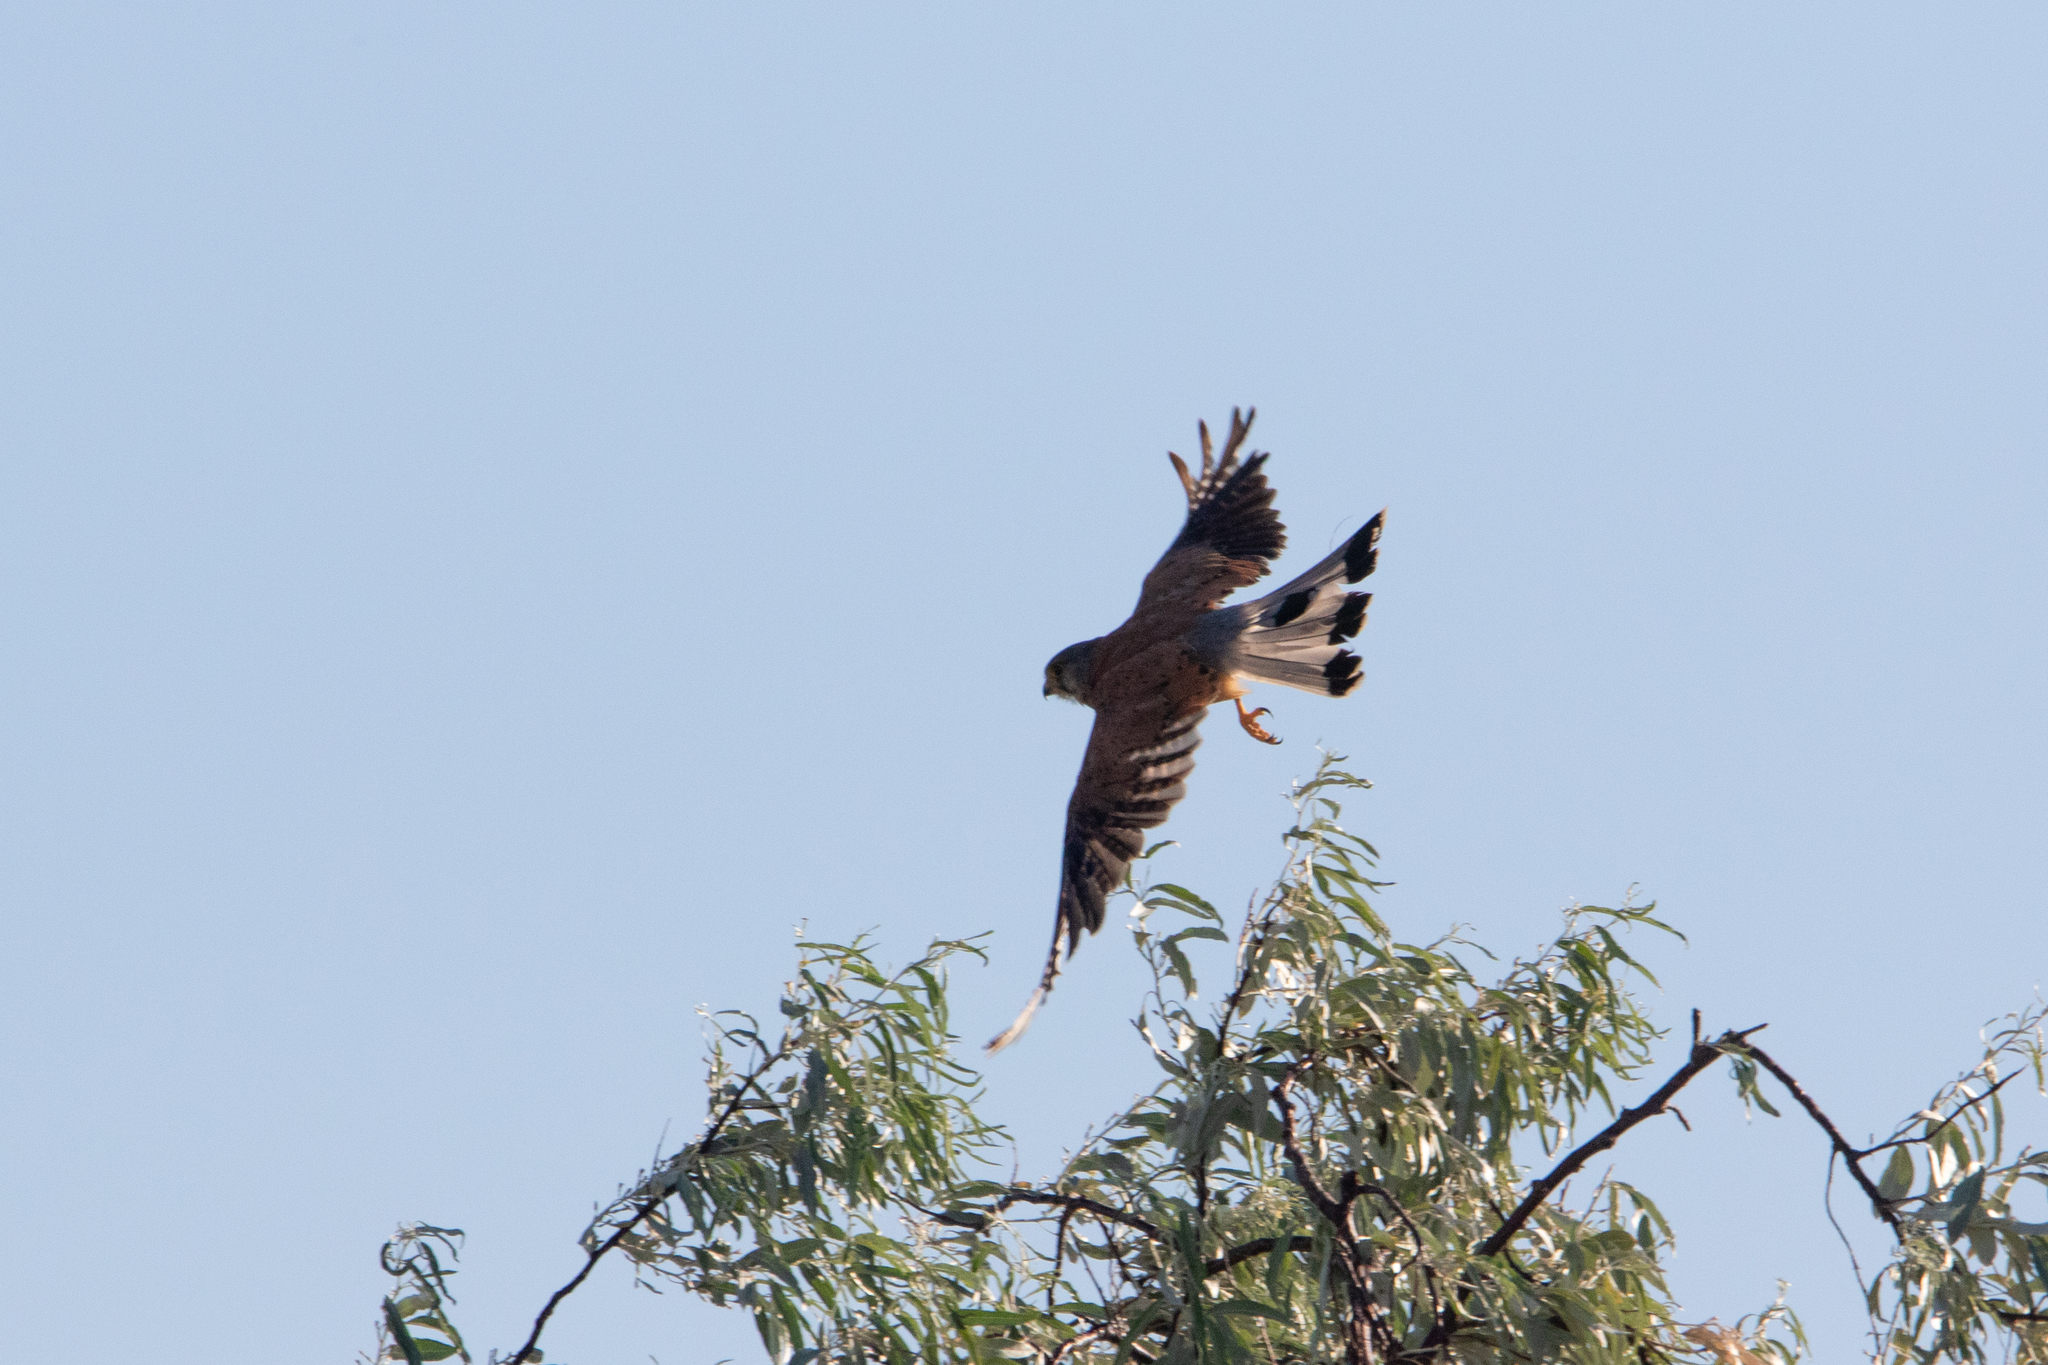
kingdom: Animalia
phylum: Chordata
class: Aves
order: Falconiformes
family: Falconidae
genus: Falco
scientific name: Falco tinnunculus
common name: Common kestrel
